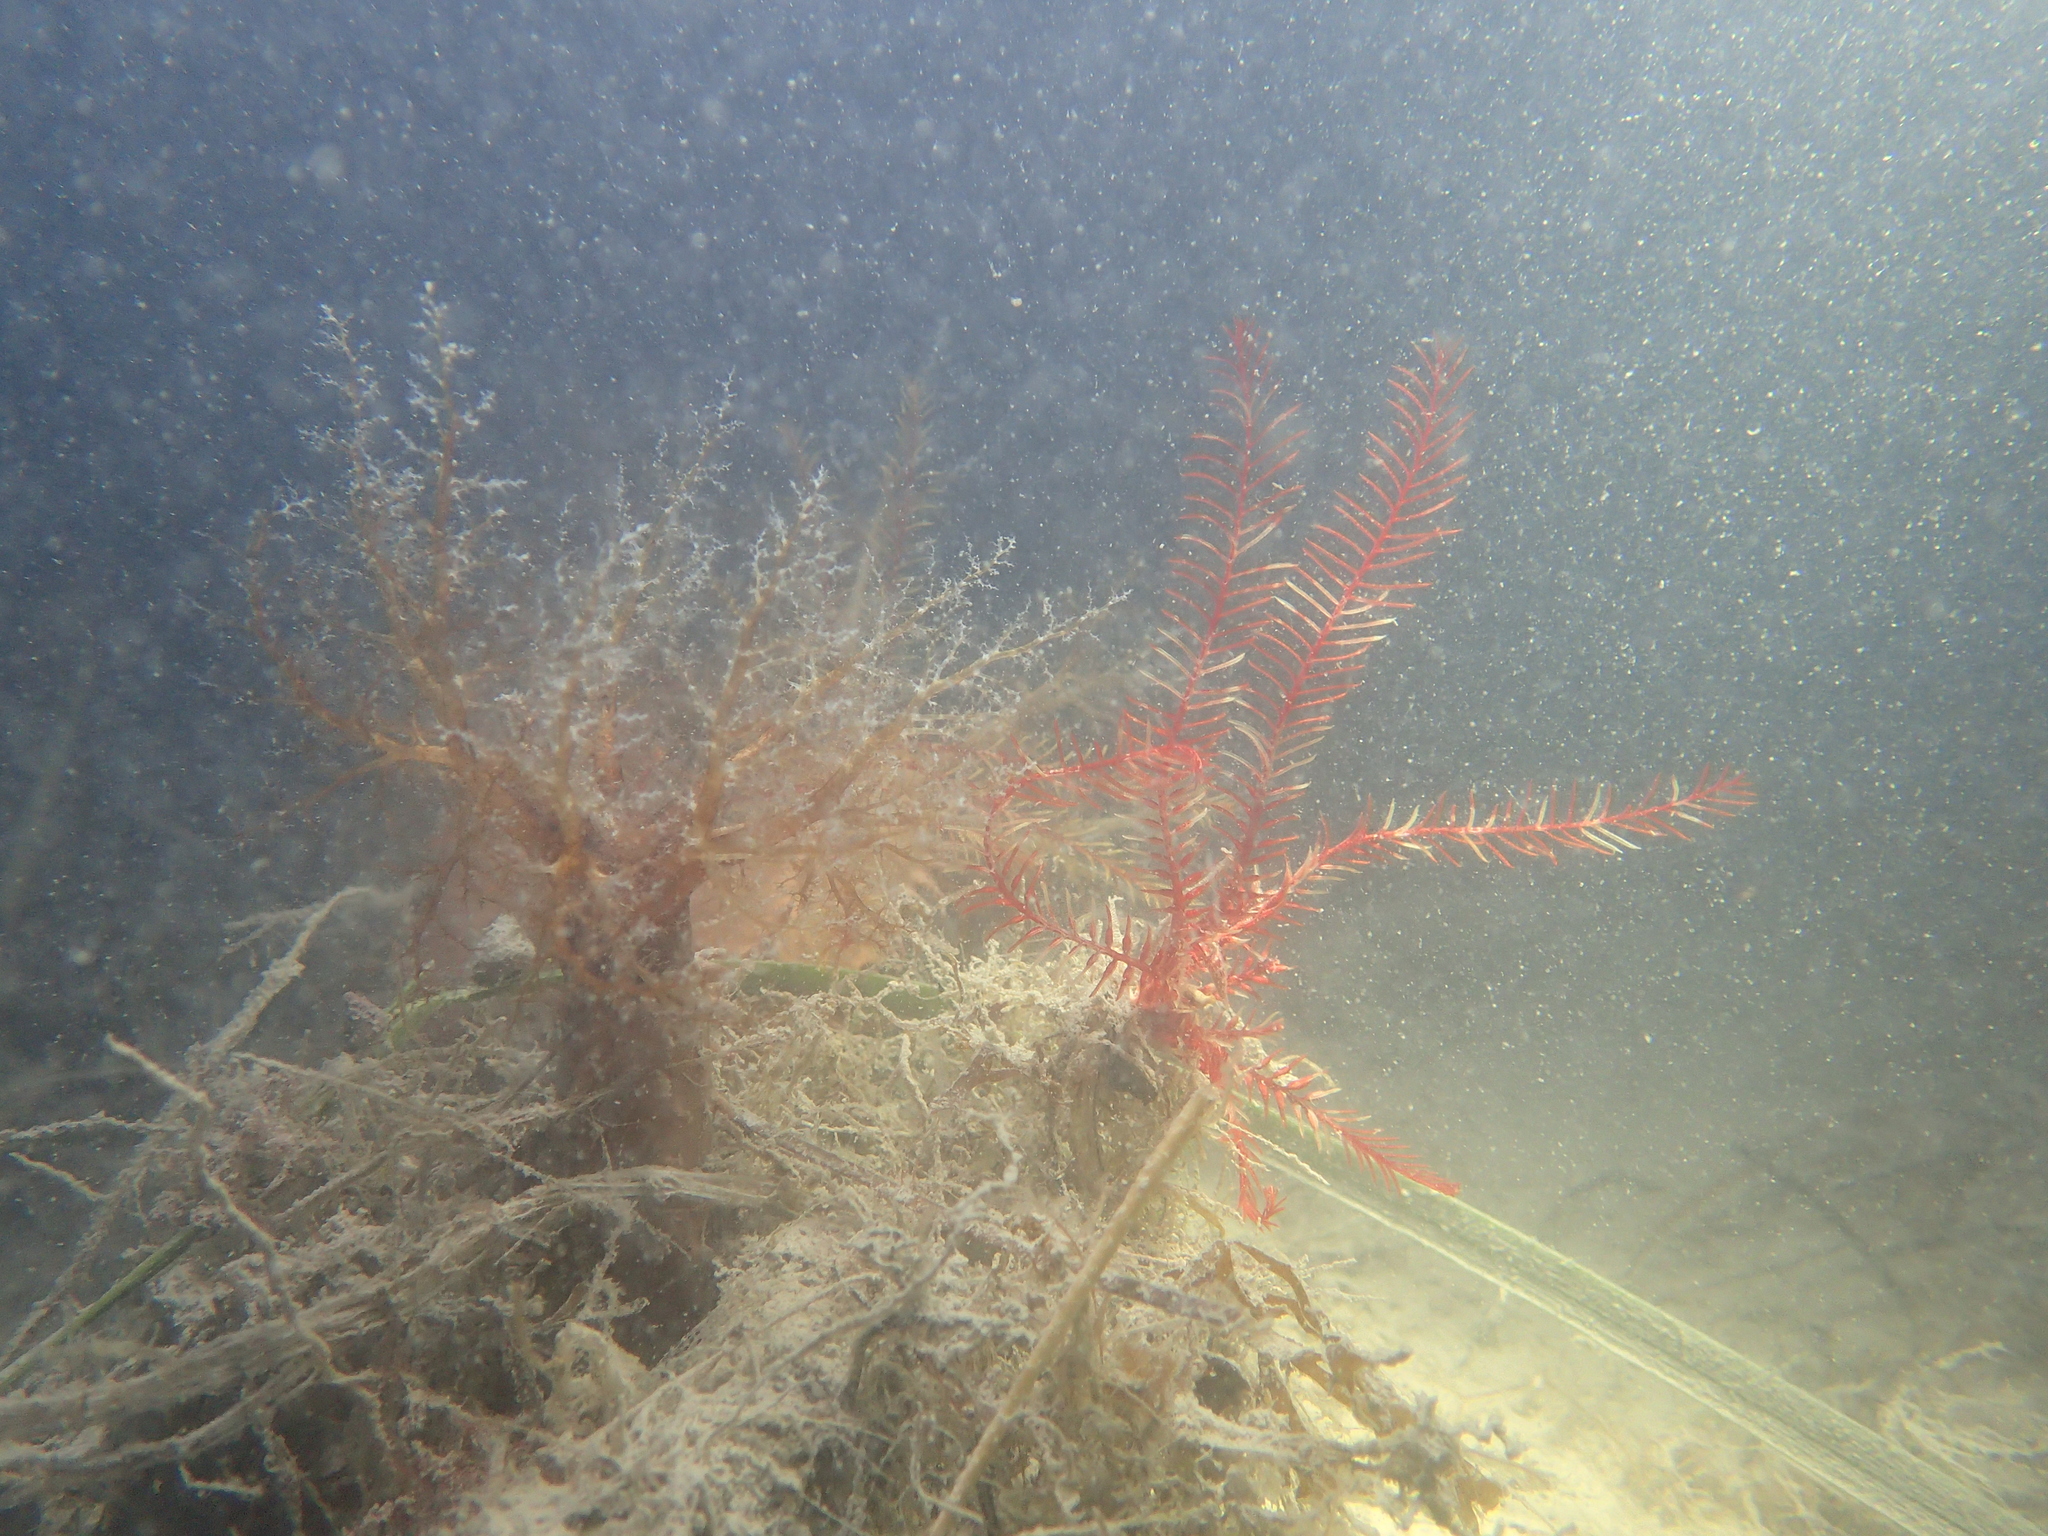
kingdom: Animalia
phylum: Echinodermata
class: Crinoidea
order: Comatulida
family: Antedonidae
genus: Antedon
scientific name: Antedon mediterranea
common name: Feather star
